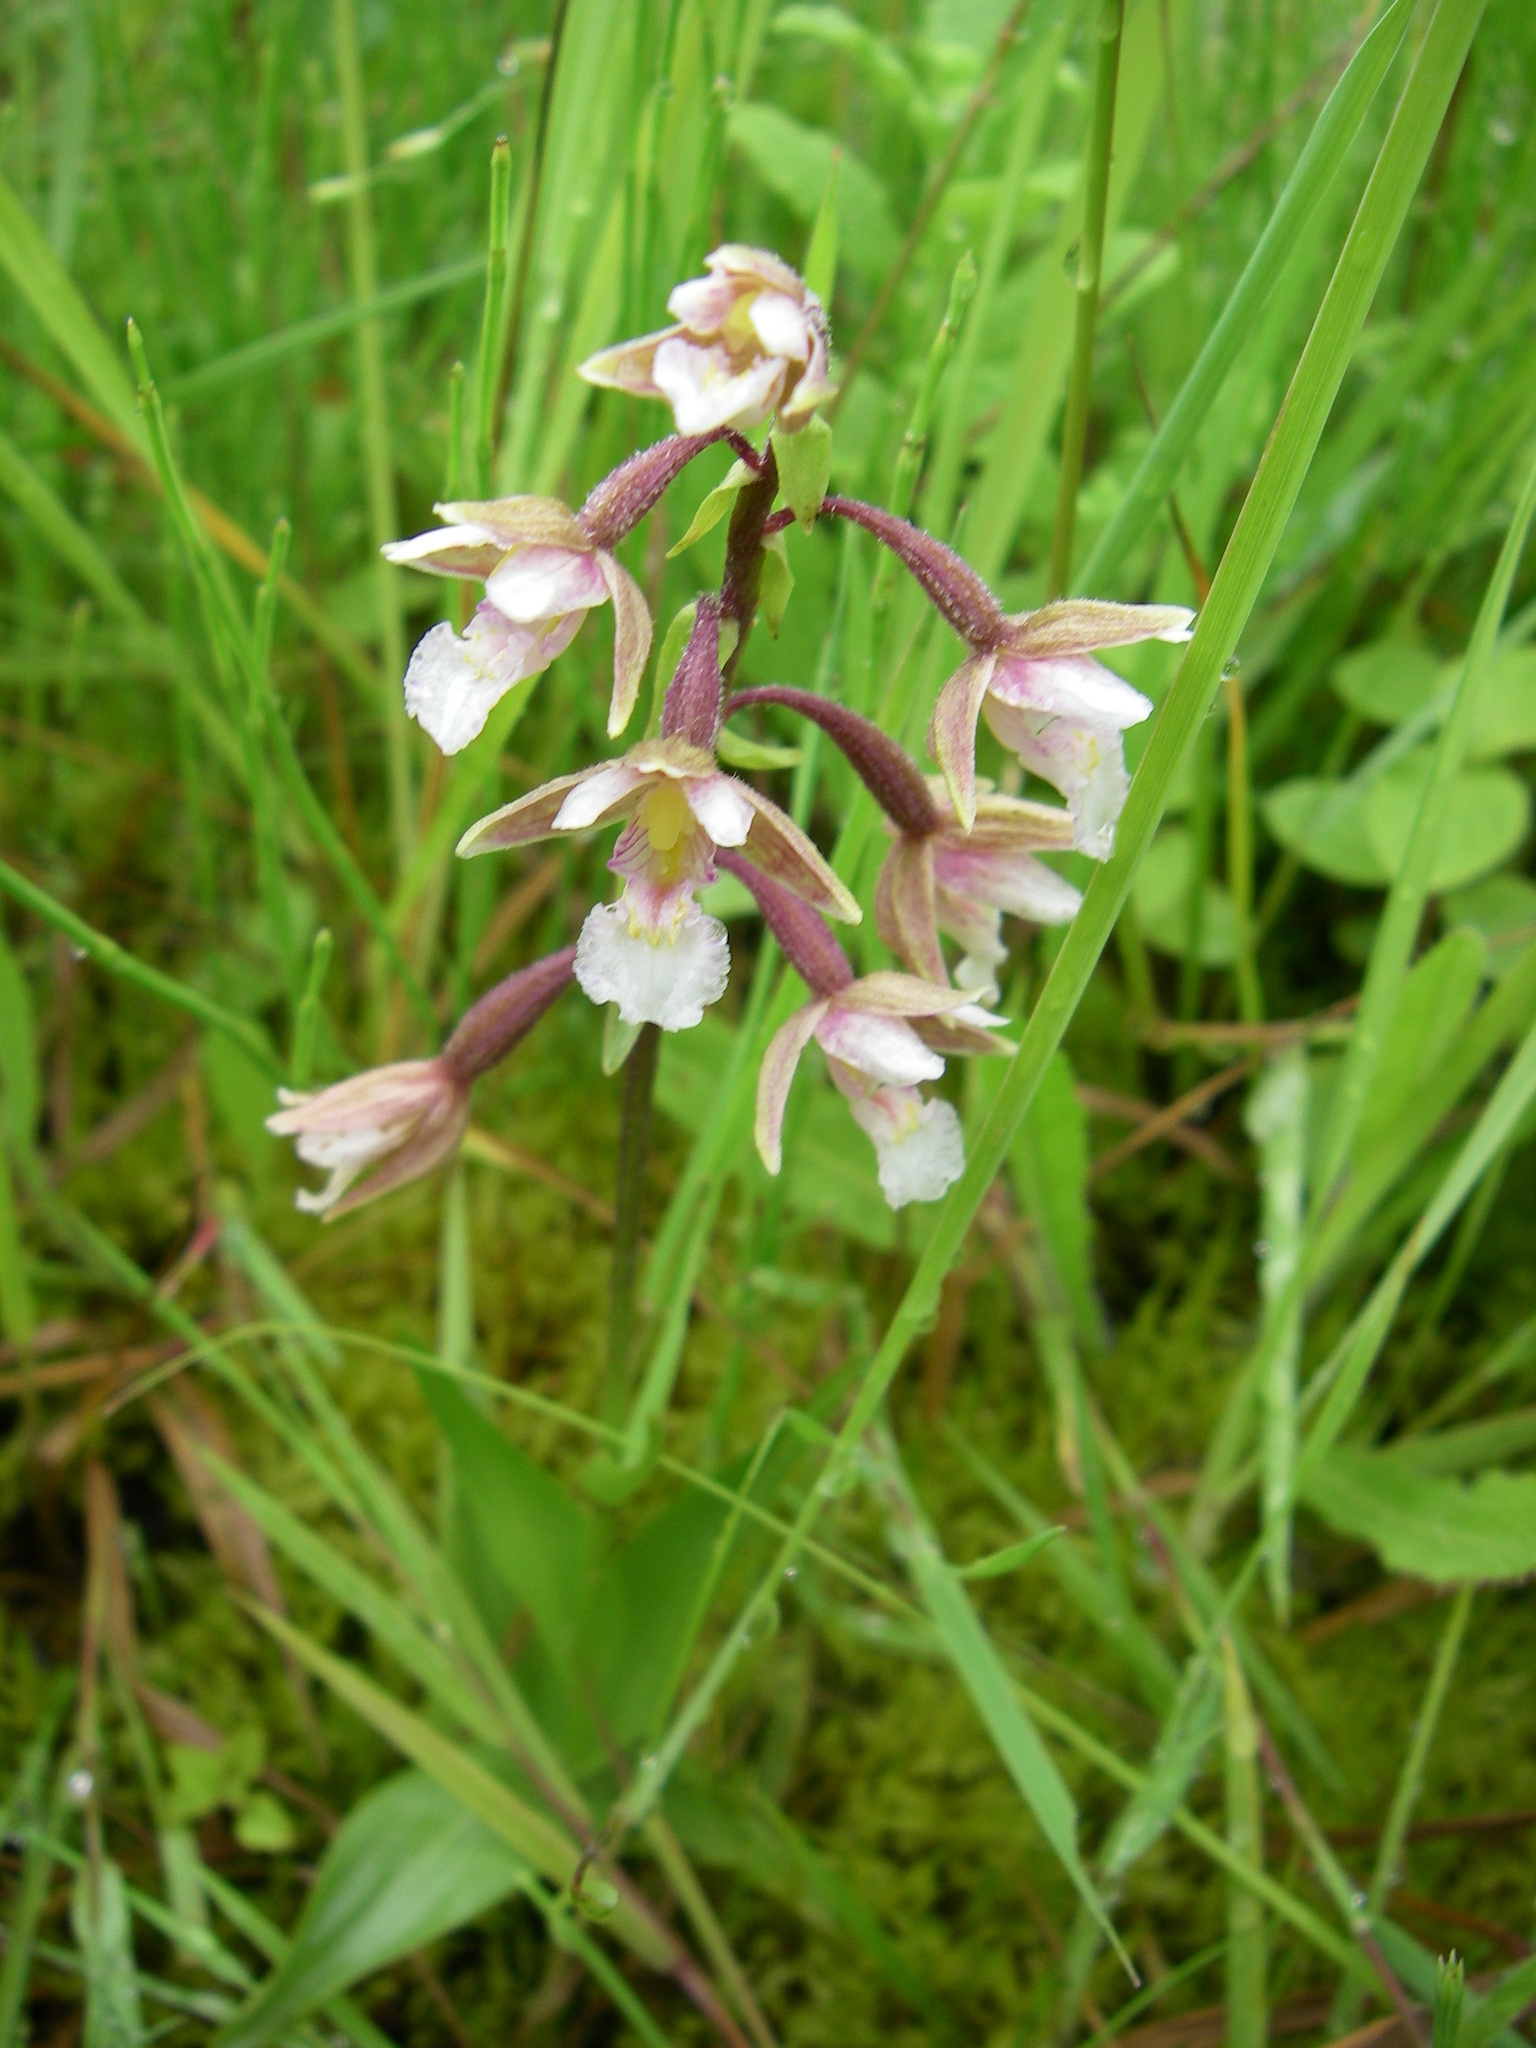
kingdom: Plantae
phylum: Tracheophyta
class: Liliopsida
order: Asparagales
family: Orchidaceae
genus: Epipactis
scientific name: Epipactis palustris
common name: Marsh helleborine
